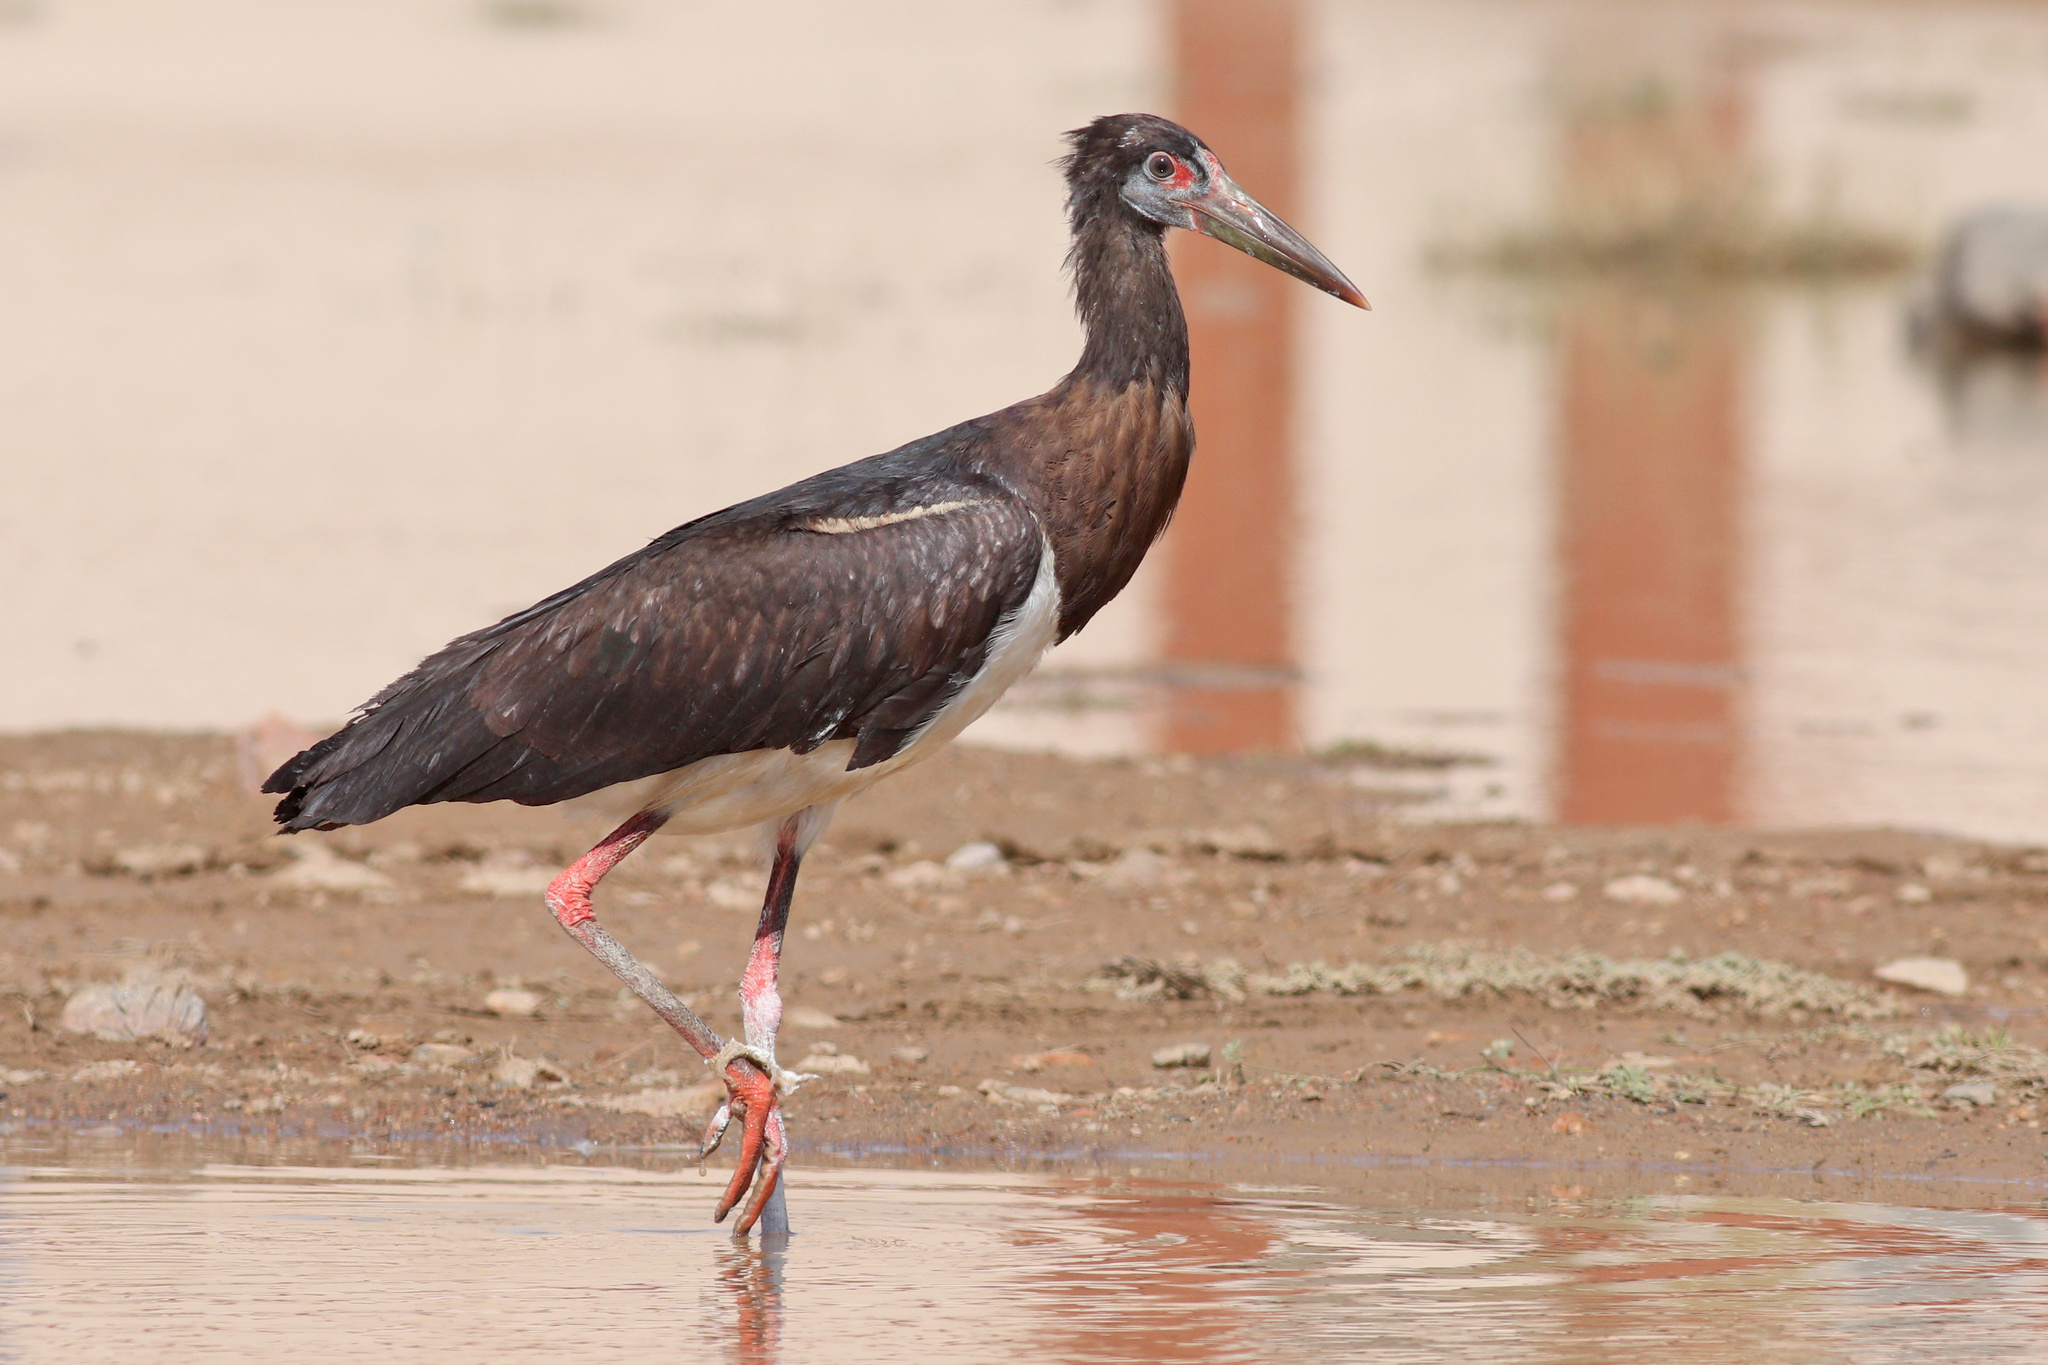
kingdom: Animalia
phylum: Chordata
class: Aves
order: Ciconiiformes
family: Ciconiidae
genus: Ciconia
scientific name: Ciconia abdimii
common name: Abdim's stork
